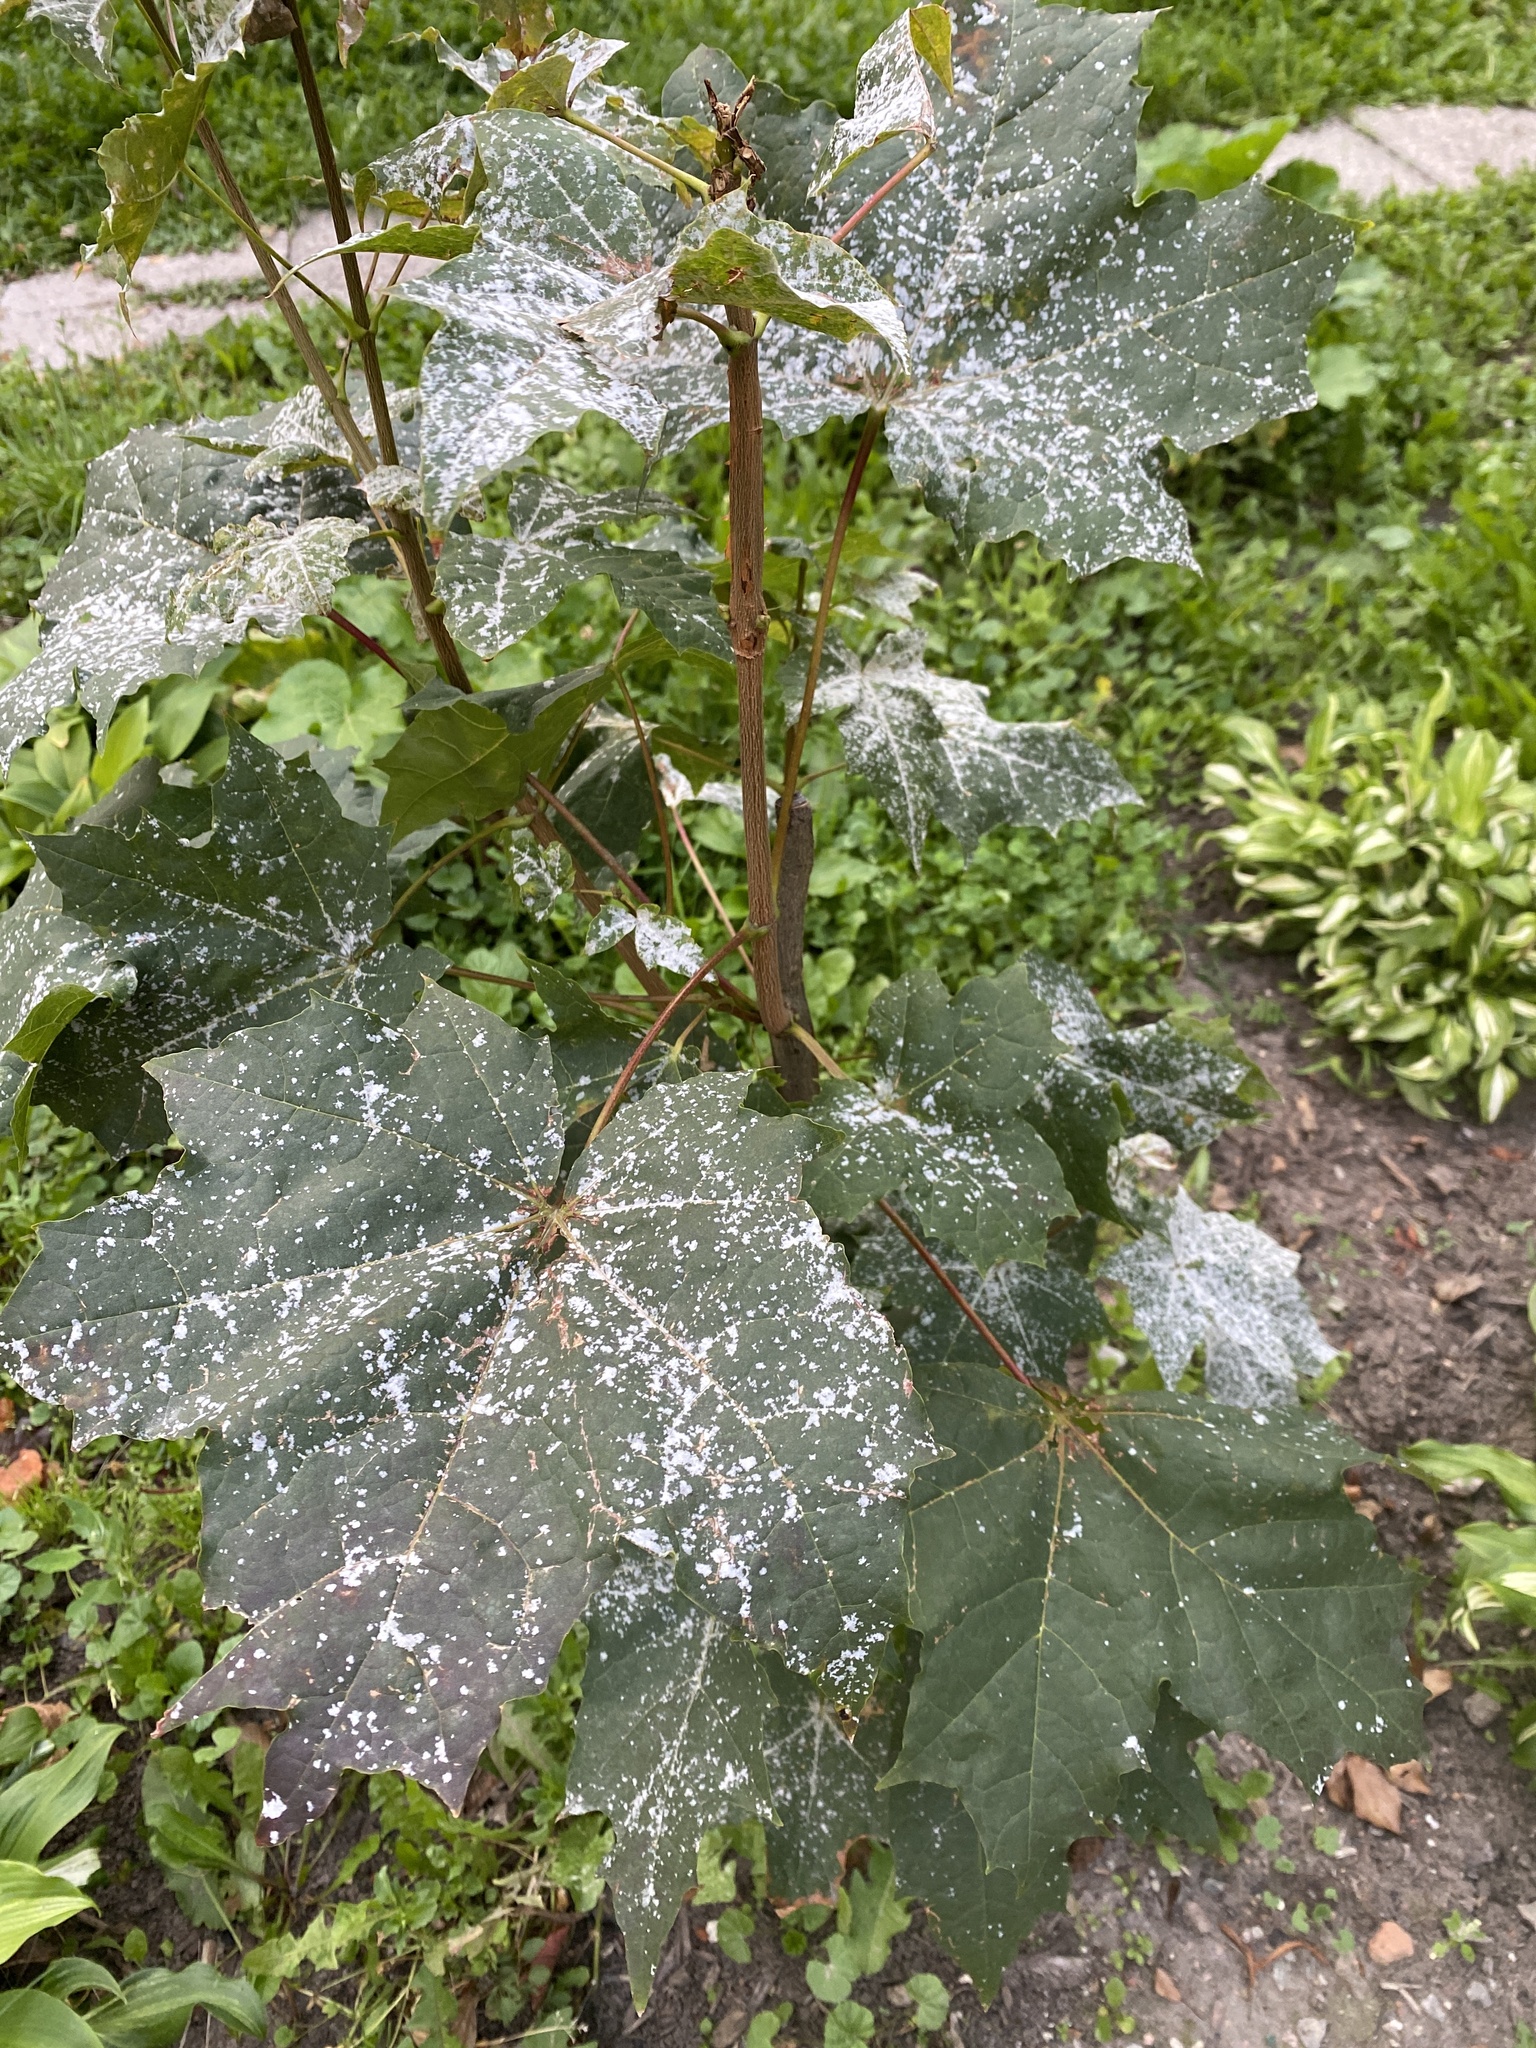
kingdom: Fungi
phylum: Ascomycota
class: Leotiomycetes
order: Helotiales
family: Erysiphaceae
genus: Sawadaea
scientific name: Sawadaea tulasnei
